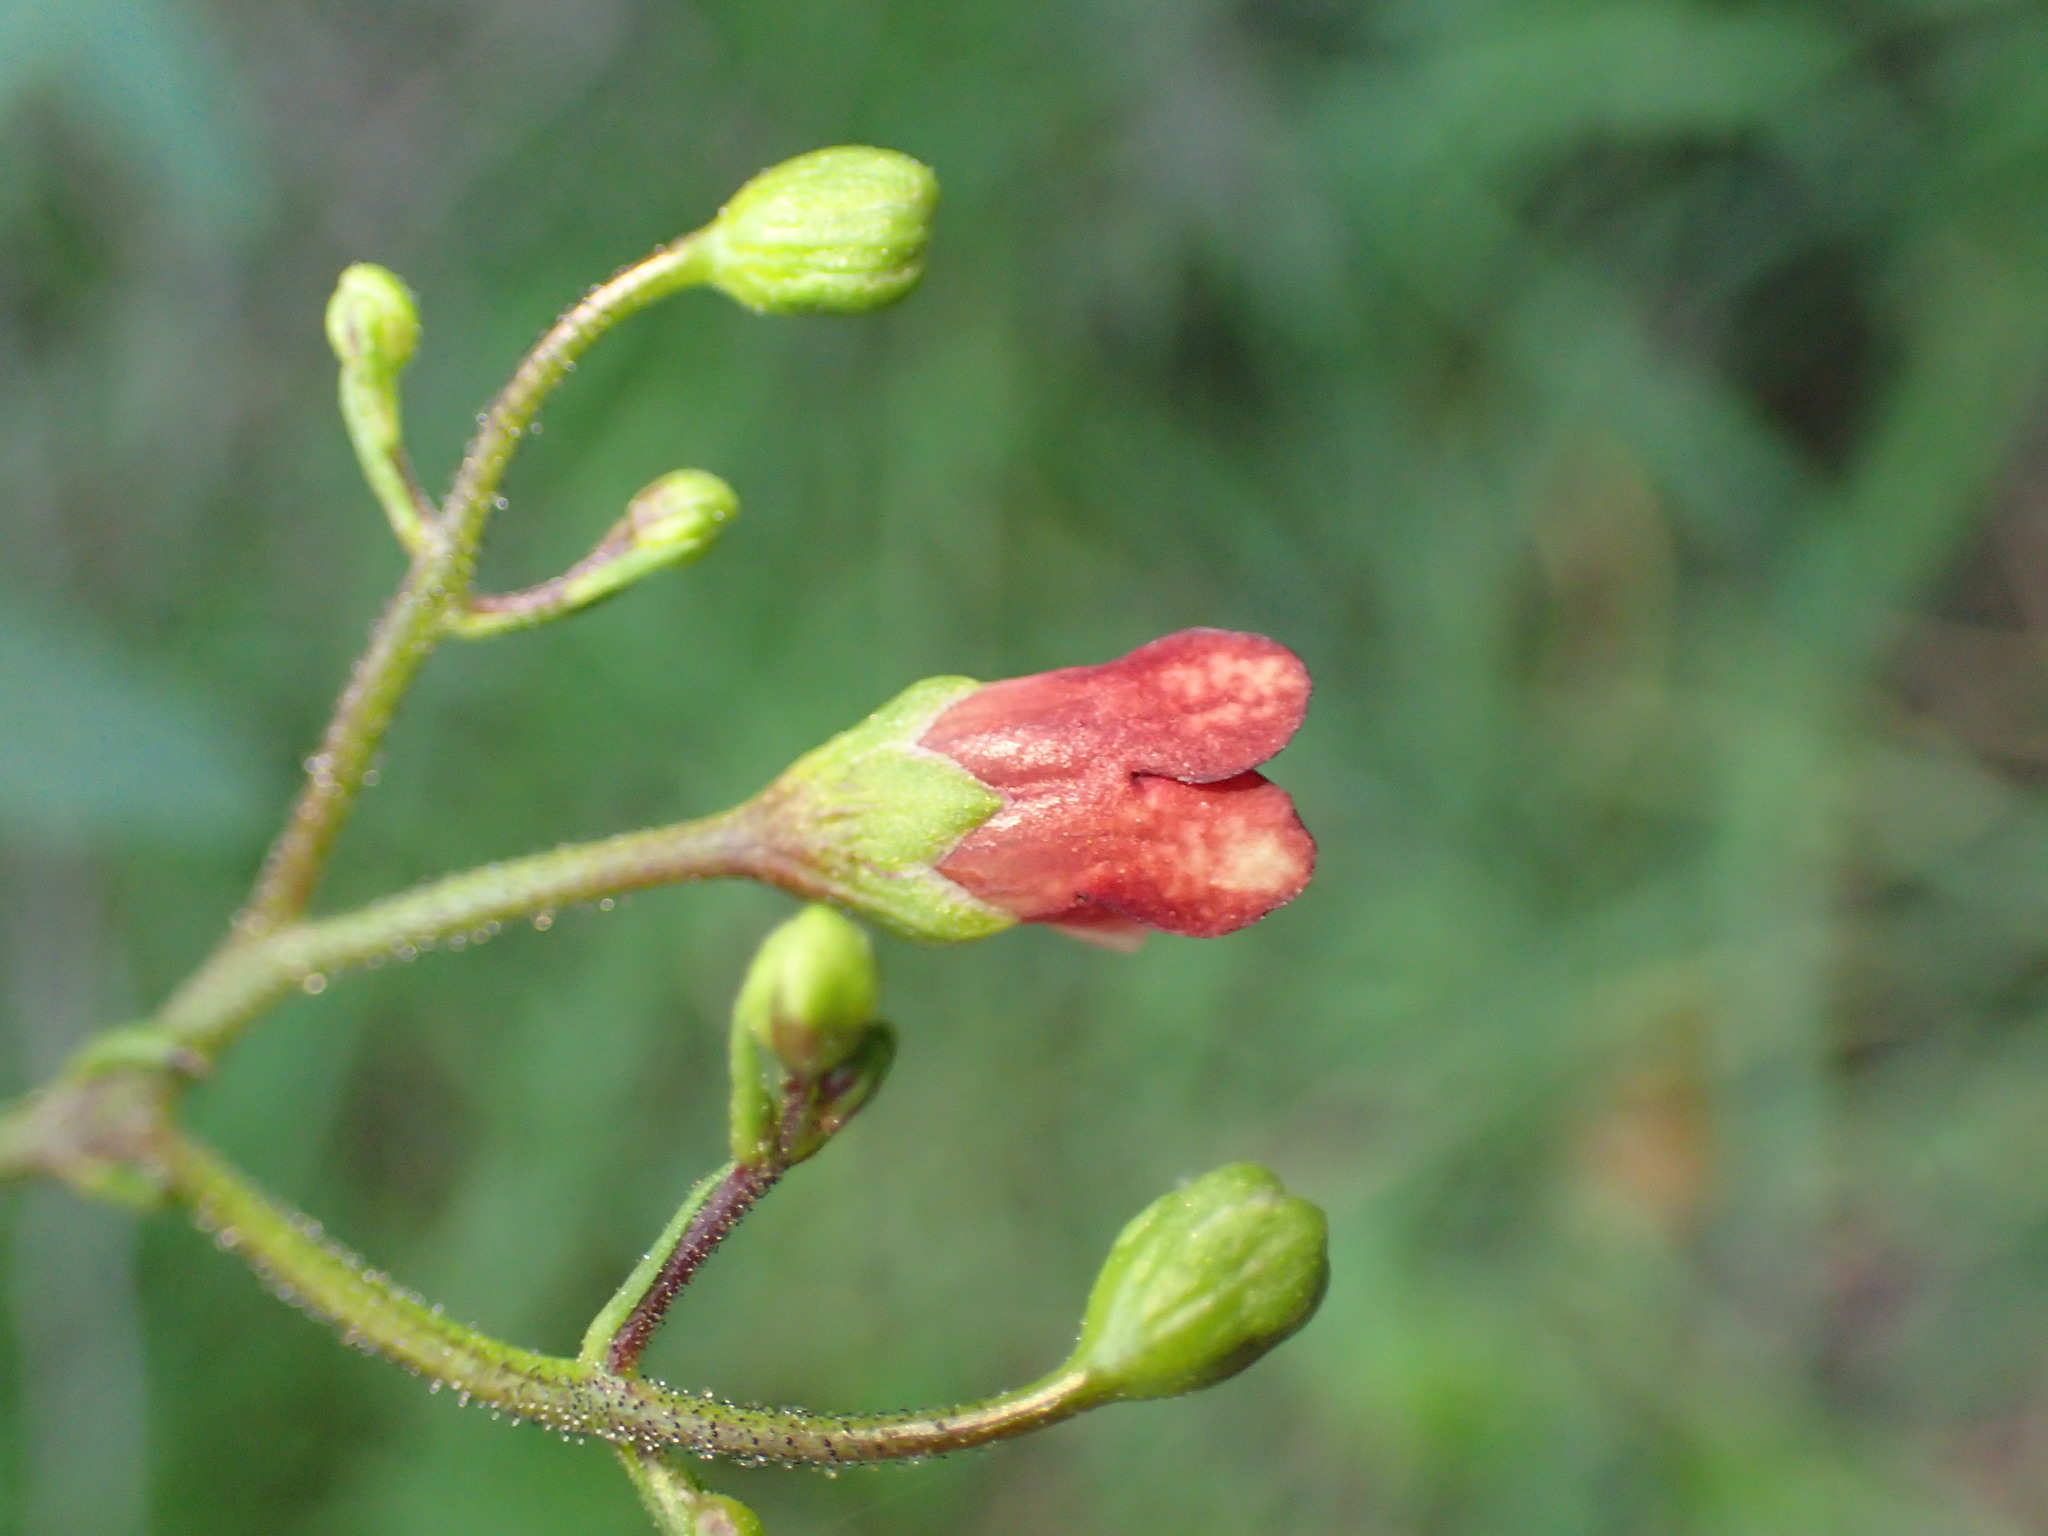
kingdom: Plantae
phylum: Tracheophyta
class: Magnoliopsida
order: Lamiales
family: Scrophulariaceae
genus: Scrophularia
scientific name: Scrophularia californica
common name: California figwort
